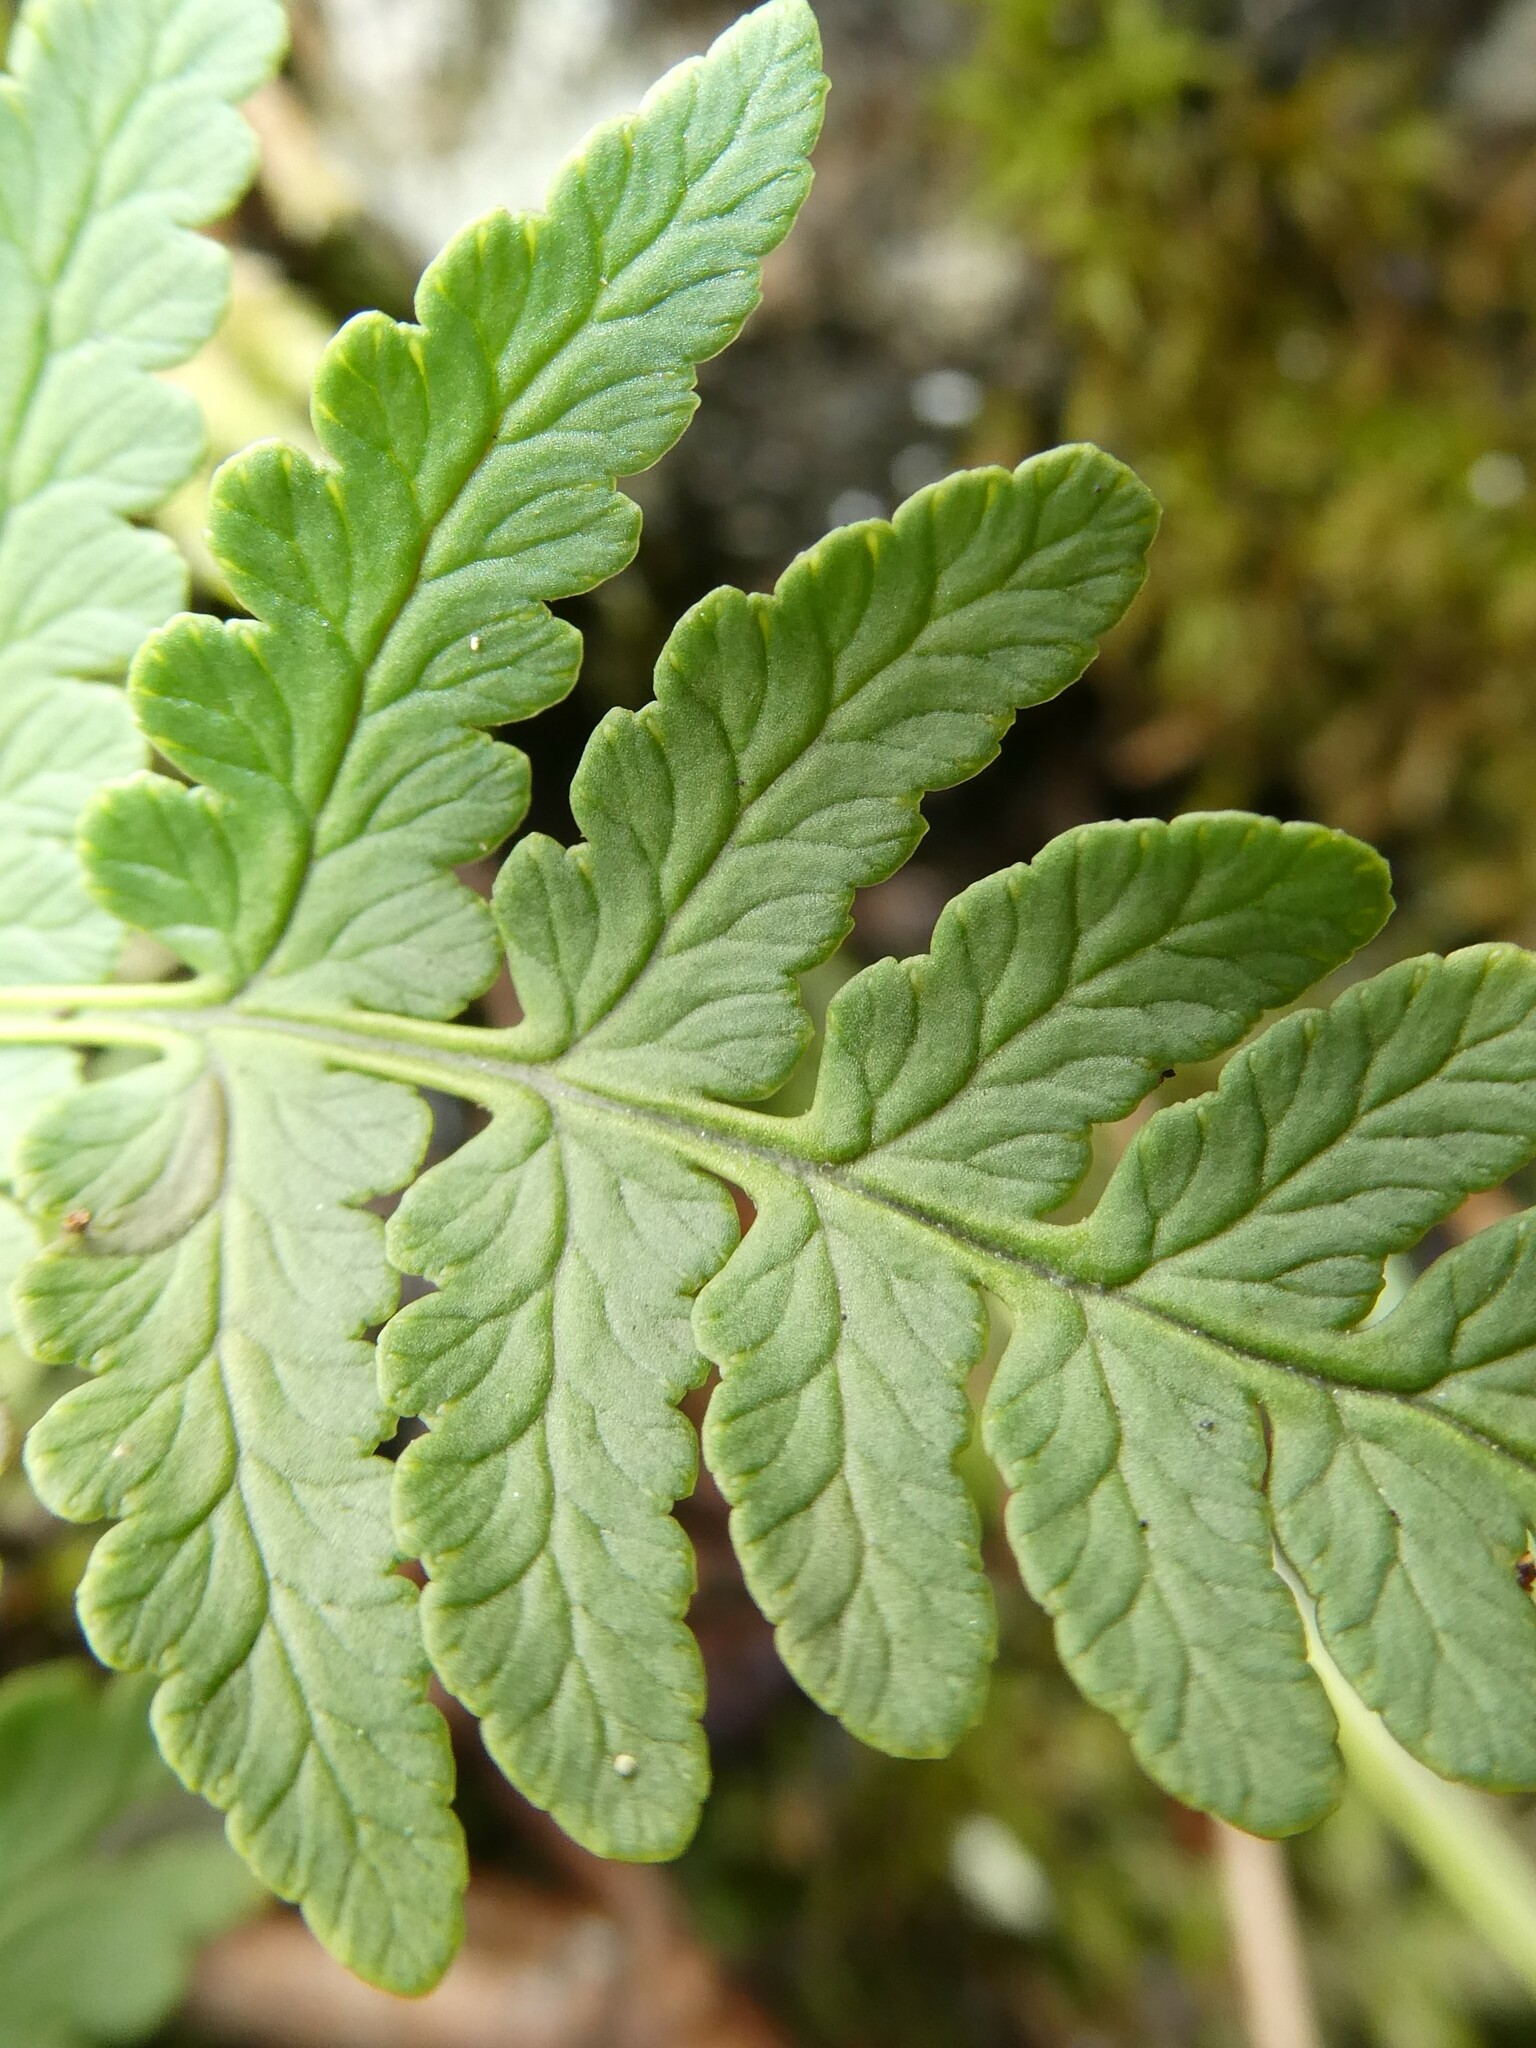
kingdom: Plantae
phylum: Tracheophyta
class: Polypodiopsida
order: Polypodiales
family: Dryopteridaceae
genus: Dryopteris
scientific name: Dryopteris marginalis
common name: Marginal wood fern
